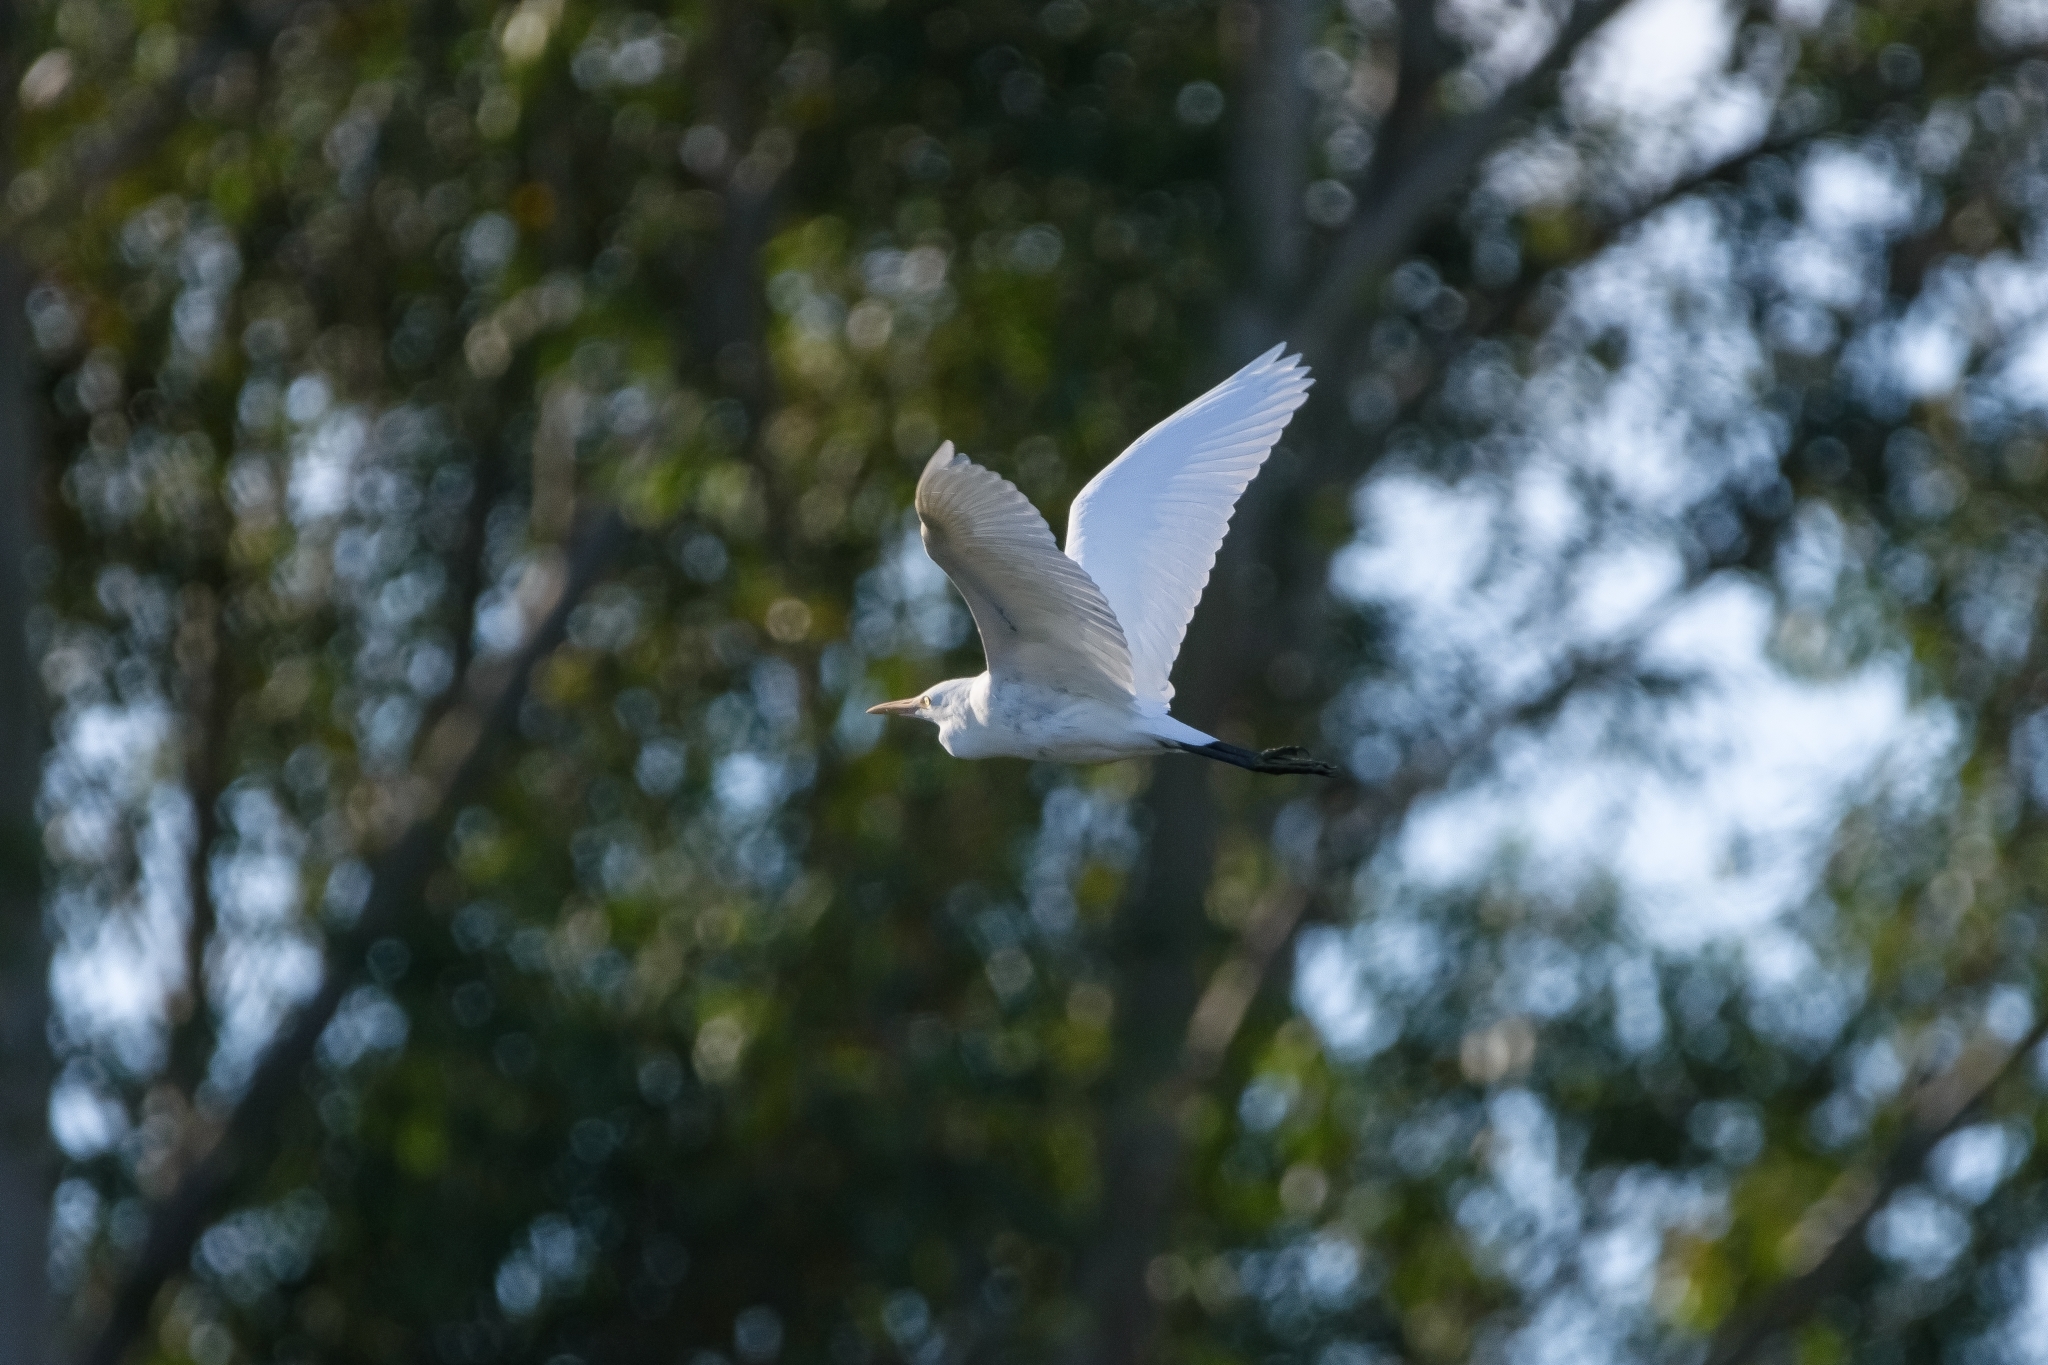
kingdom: Animalia
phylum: Chordata
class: Aves
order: Pelecaniformes
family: Ardeidae
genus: Egretta
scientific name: Egretta intermedia
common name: Intermediate egret
